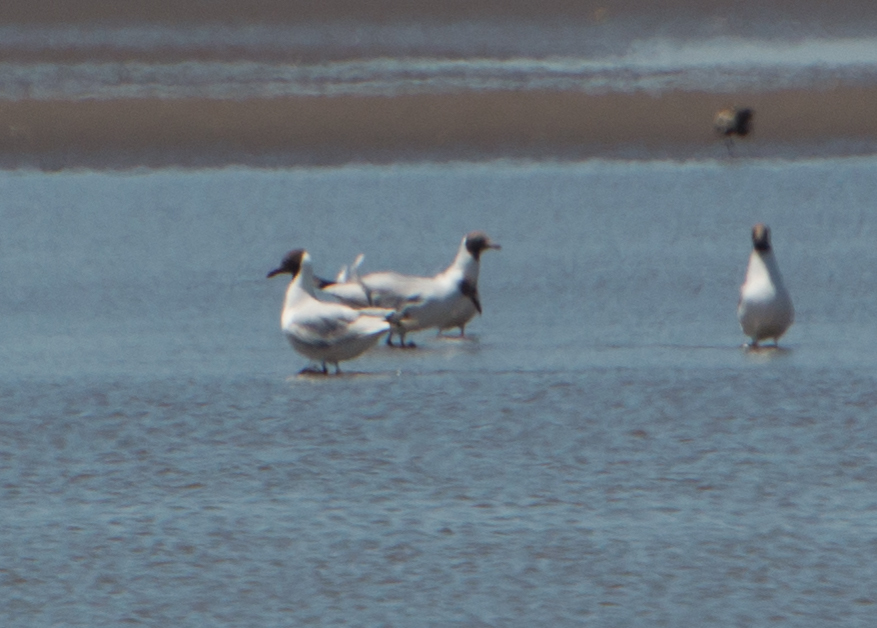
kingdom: Animalia
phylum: Chordata
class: Aves
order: Charadriiformes
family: Laridae
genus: Chroicocephalus
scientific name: Chroicocephalus maculipennis
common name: Brown-hooded gull
